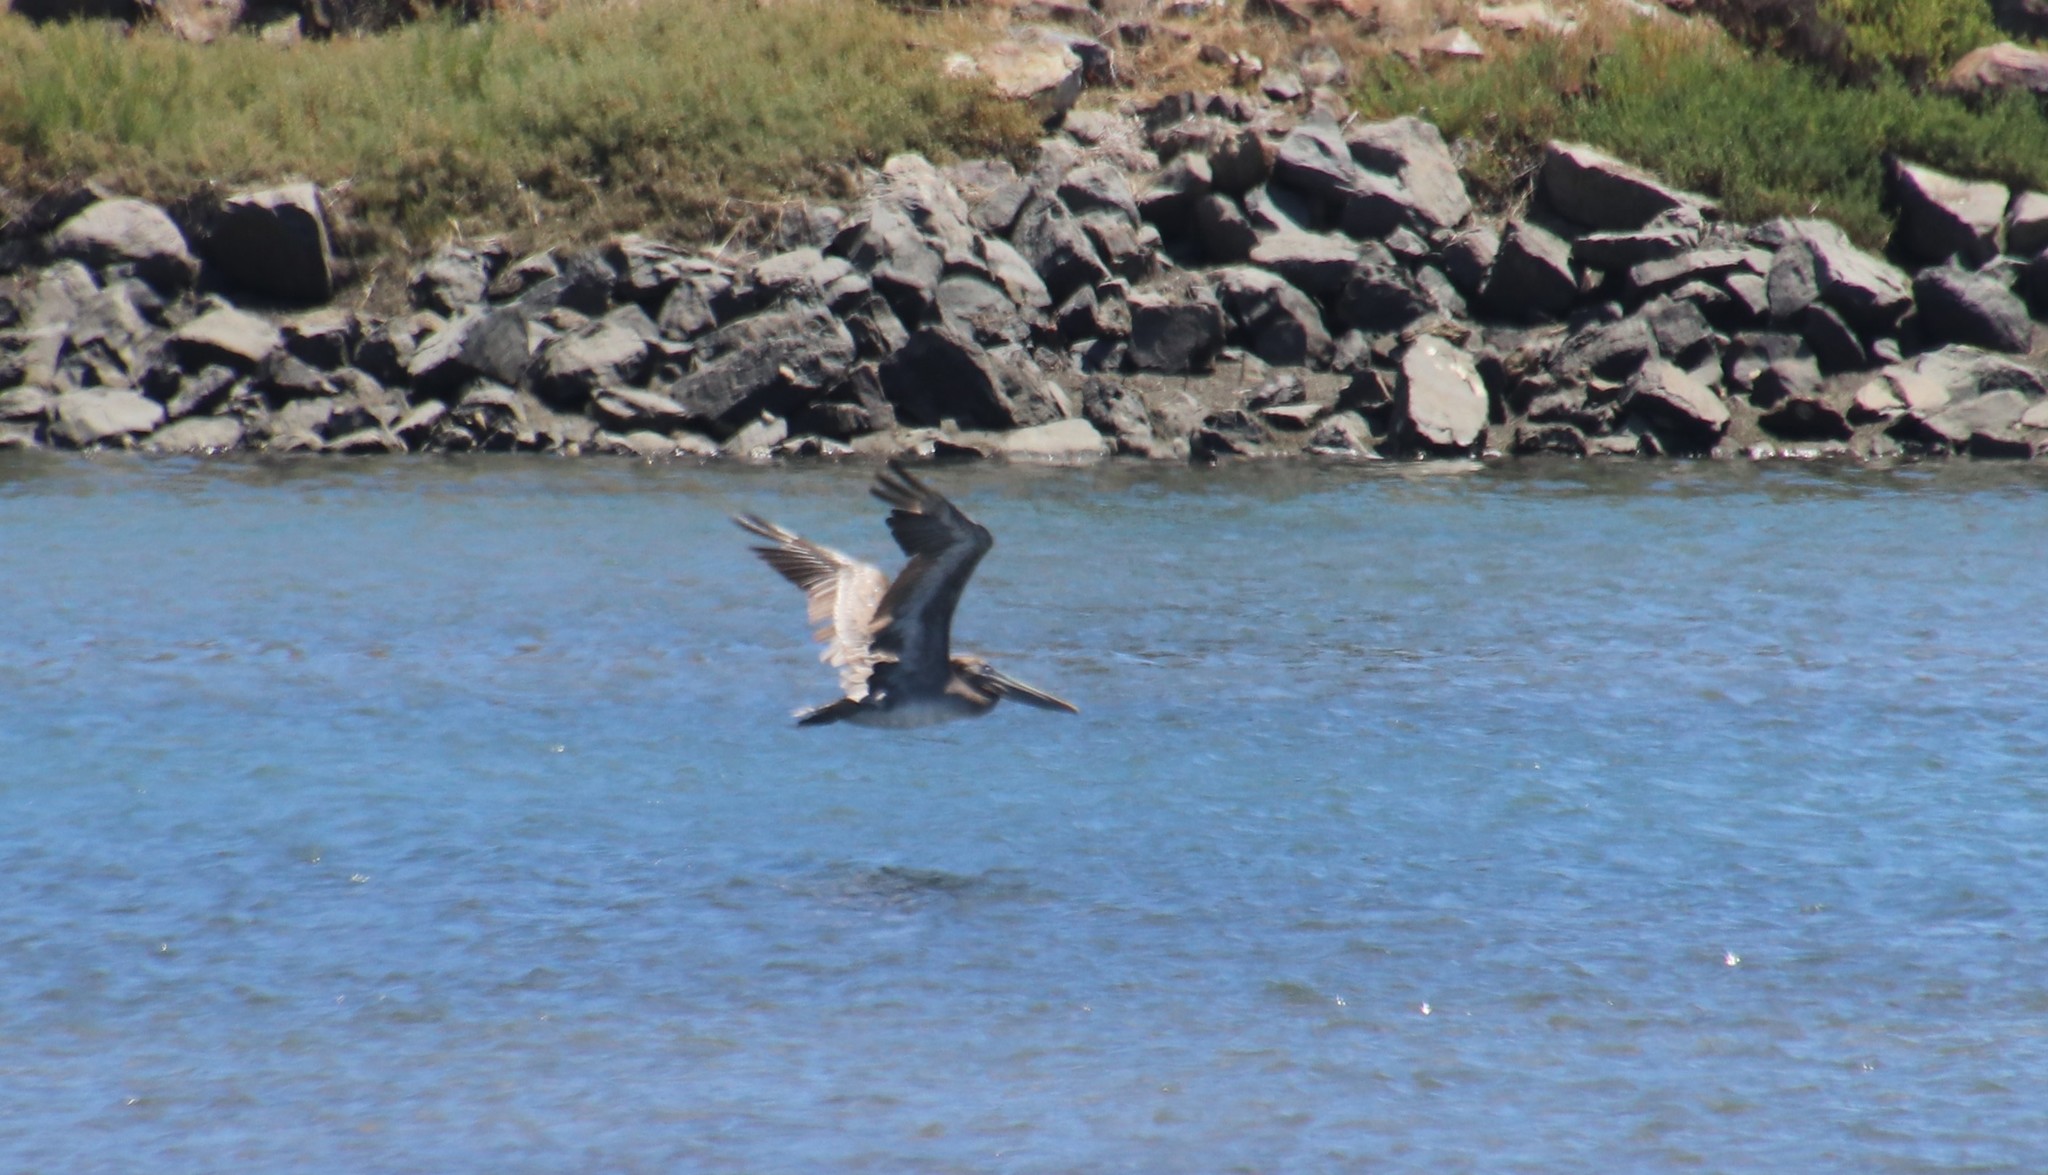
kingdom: Animalia
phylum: Chordata
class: Aves
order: Pelecaniformes
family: Pelecanidae
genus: Pelecanus
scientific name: Pelecanus occidentalis
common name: Brown pelican
